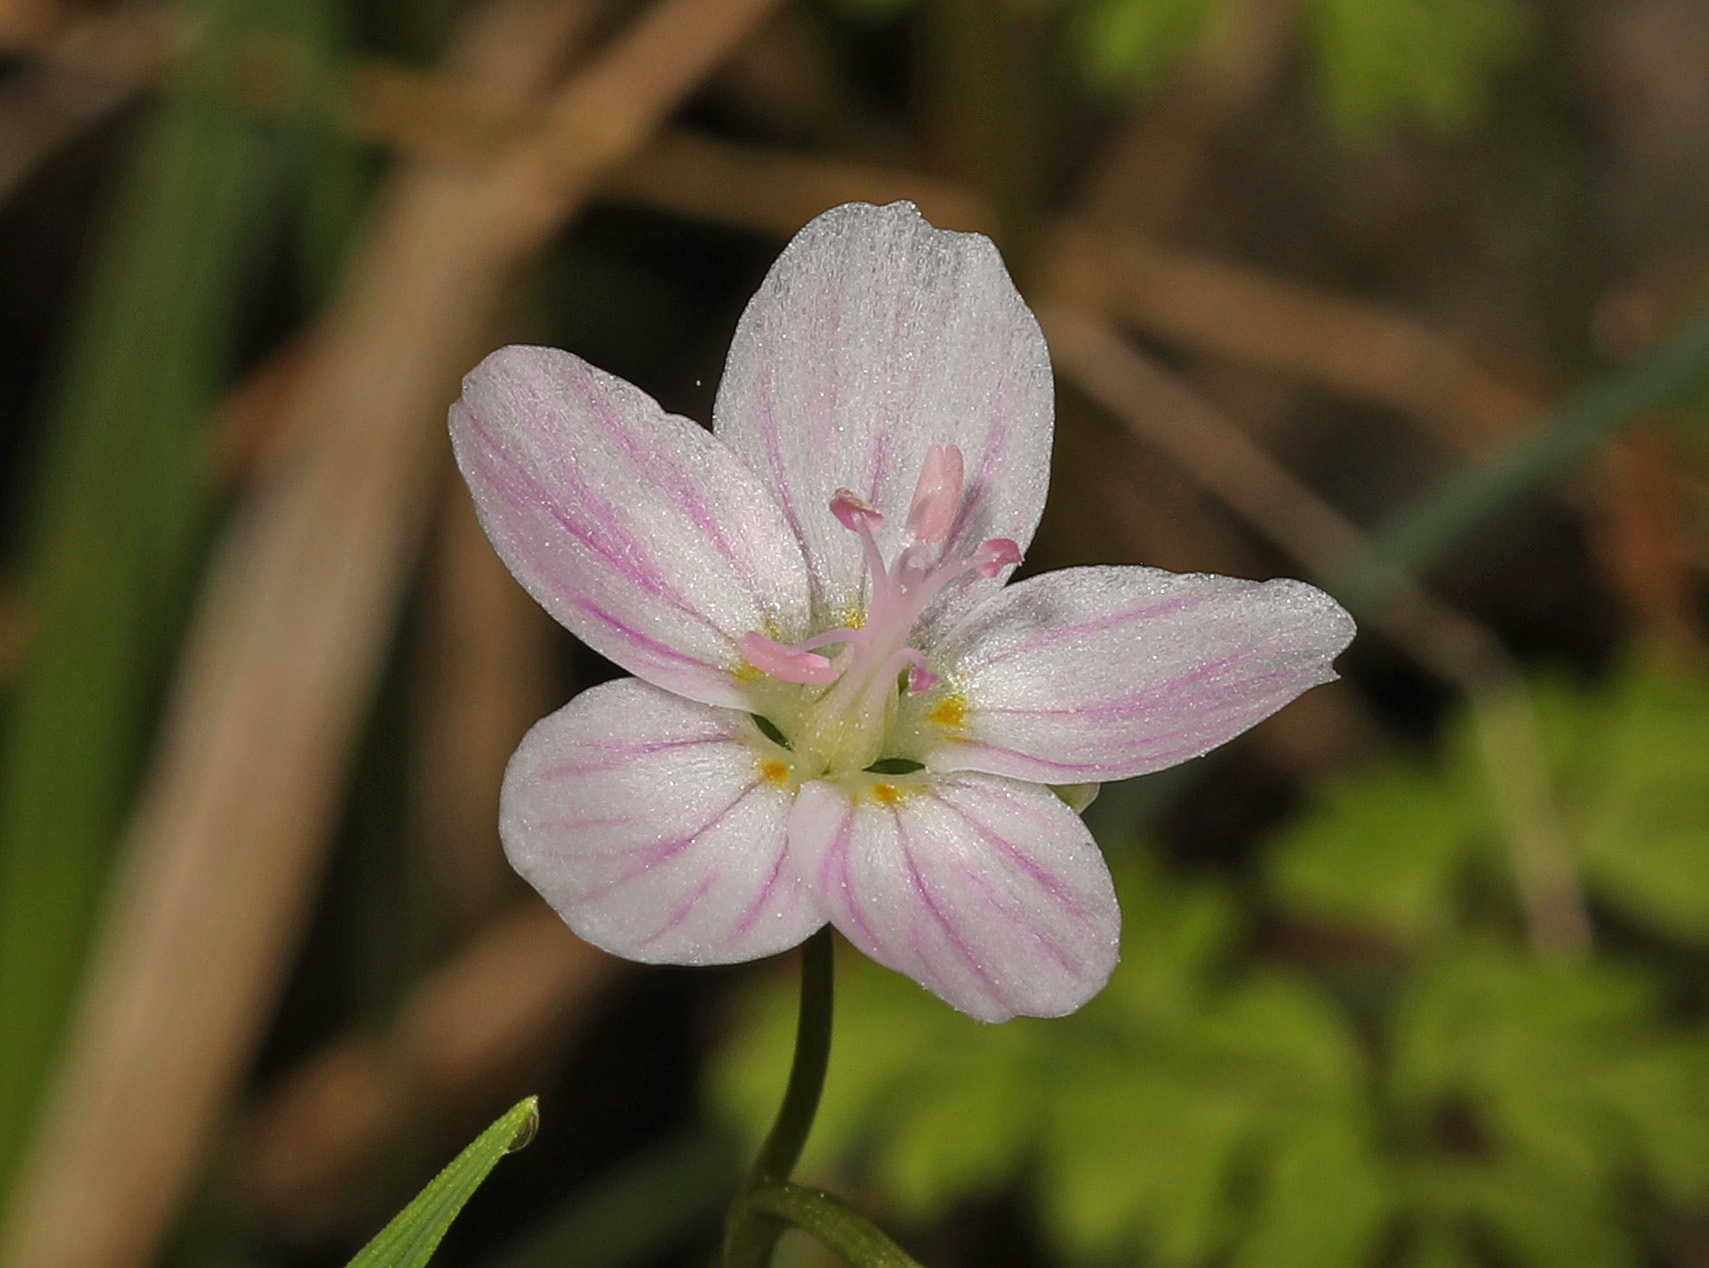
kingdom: Plantae
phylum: Tracheophyta
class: Magnoliopsida
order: Caryophyllales
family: Montiaceae
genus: Claytonia
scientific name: Claytonia virginica
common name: Virginia springbeauty
